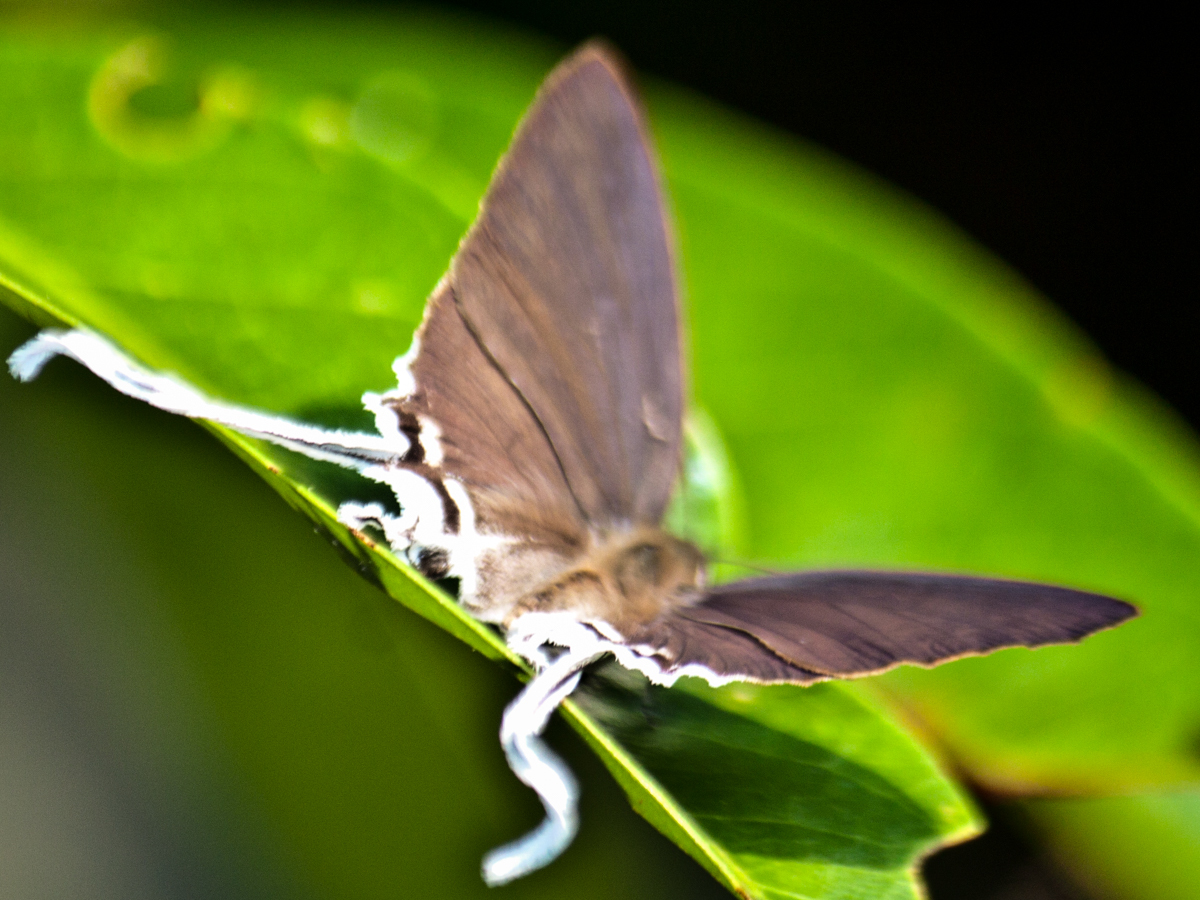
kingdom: Animalia
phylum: Arthropoda
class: Insecta
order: Lepidoptera
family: Lycaenidae
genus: Cheritra
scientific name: Cheritra freja
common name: Common imperial
